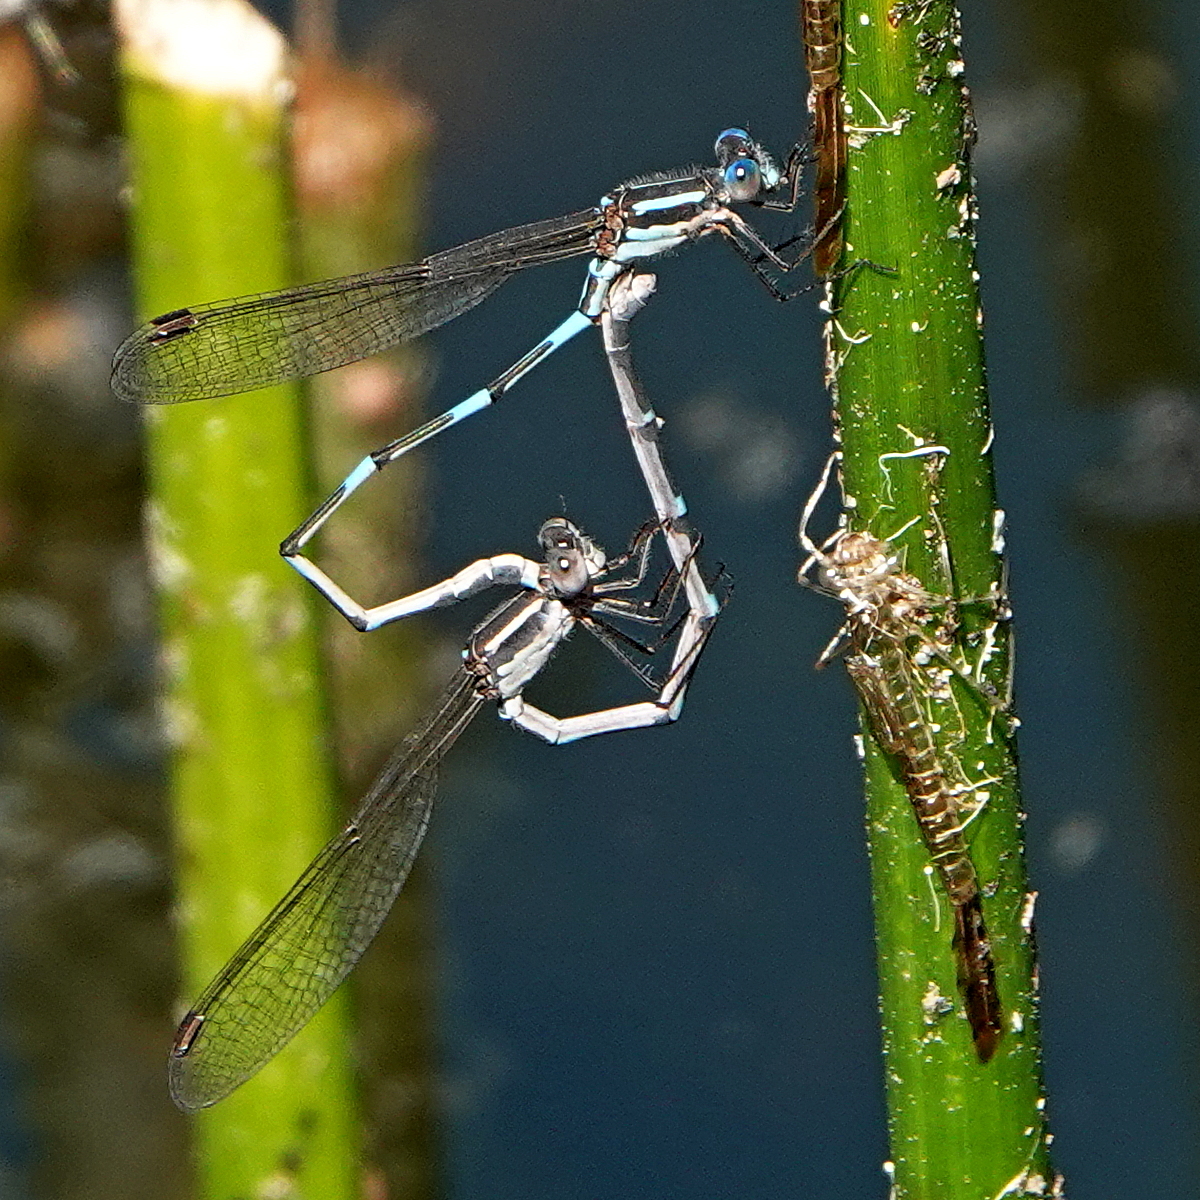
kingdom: Animalia
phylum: Arthropoda
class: Insecta
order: Odonata
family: Lestidae
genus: Austrolestes
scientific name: Austrolestes leda
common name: Wandering ringtail
